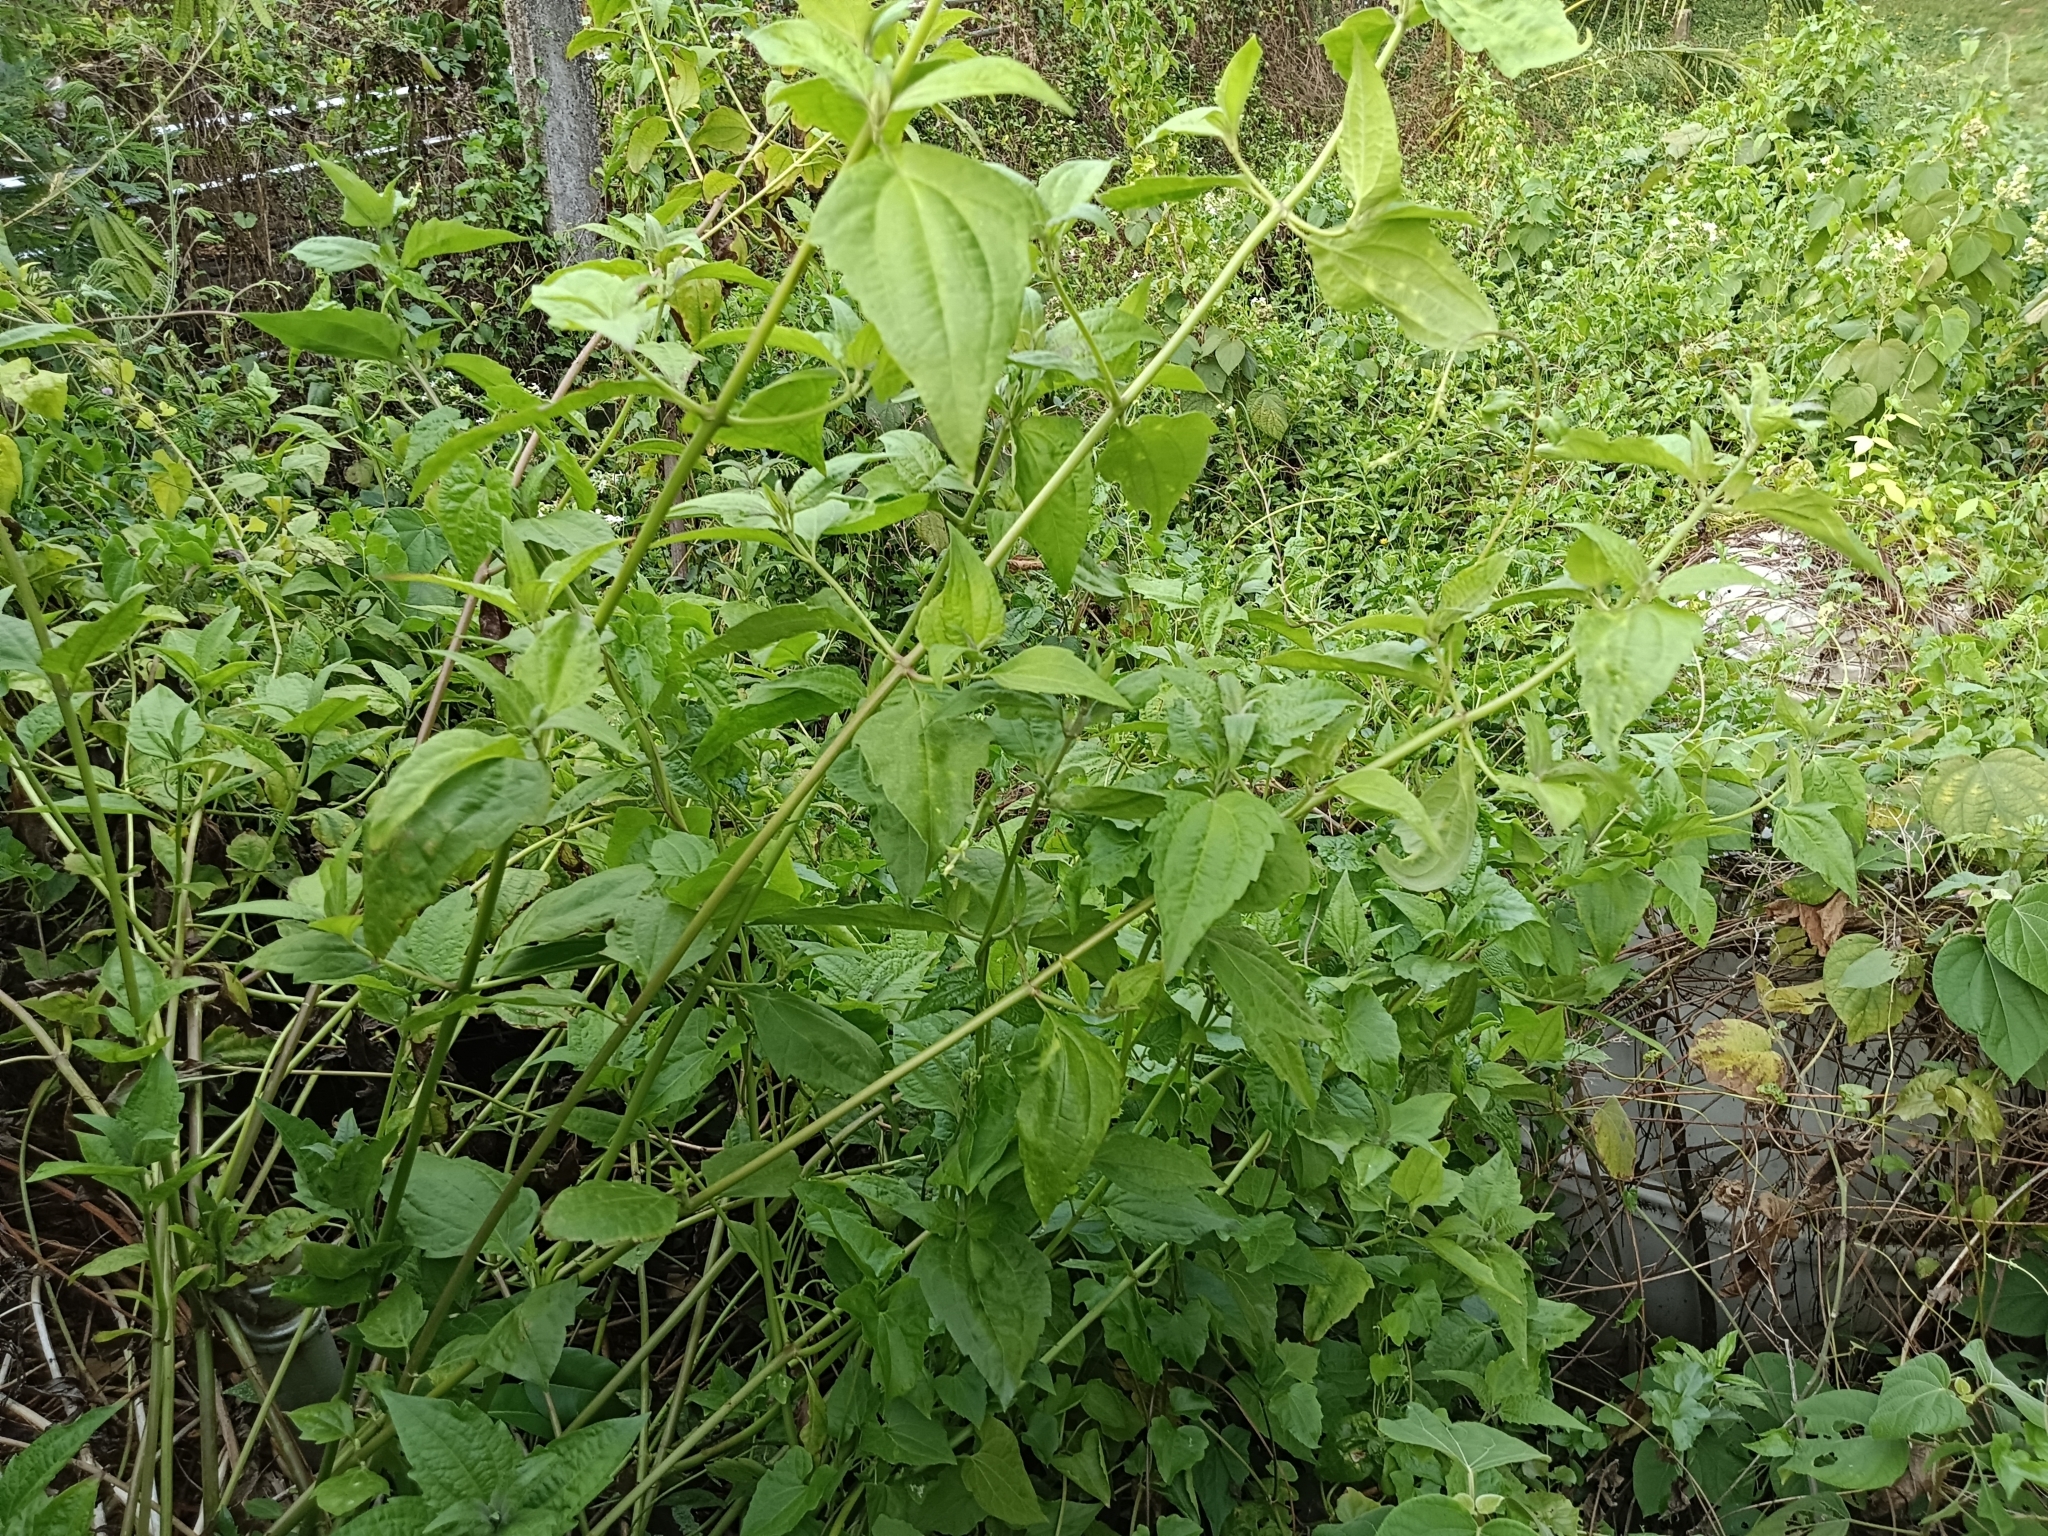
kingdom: Plantae
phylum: Tracheophyta
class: Magnoliopsida
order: Asterales
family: Asteraceae
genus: Chromolaena
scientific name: Chromolaena odorata
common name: Siamweed
